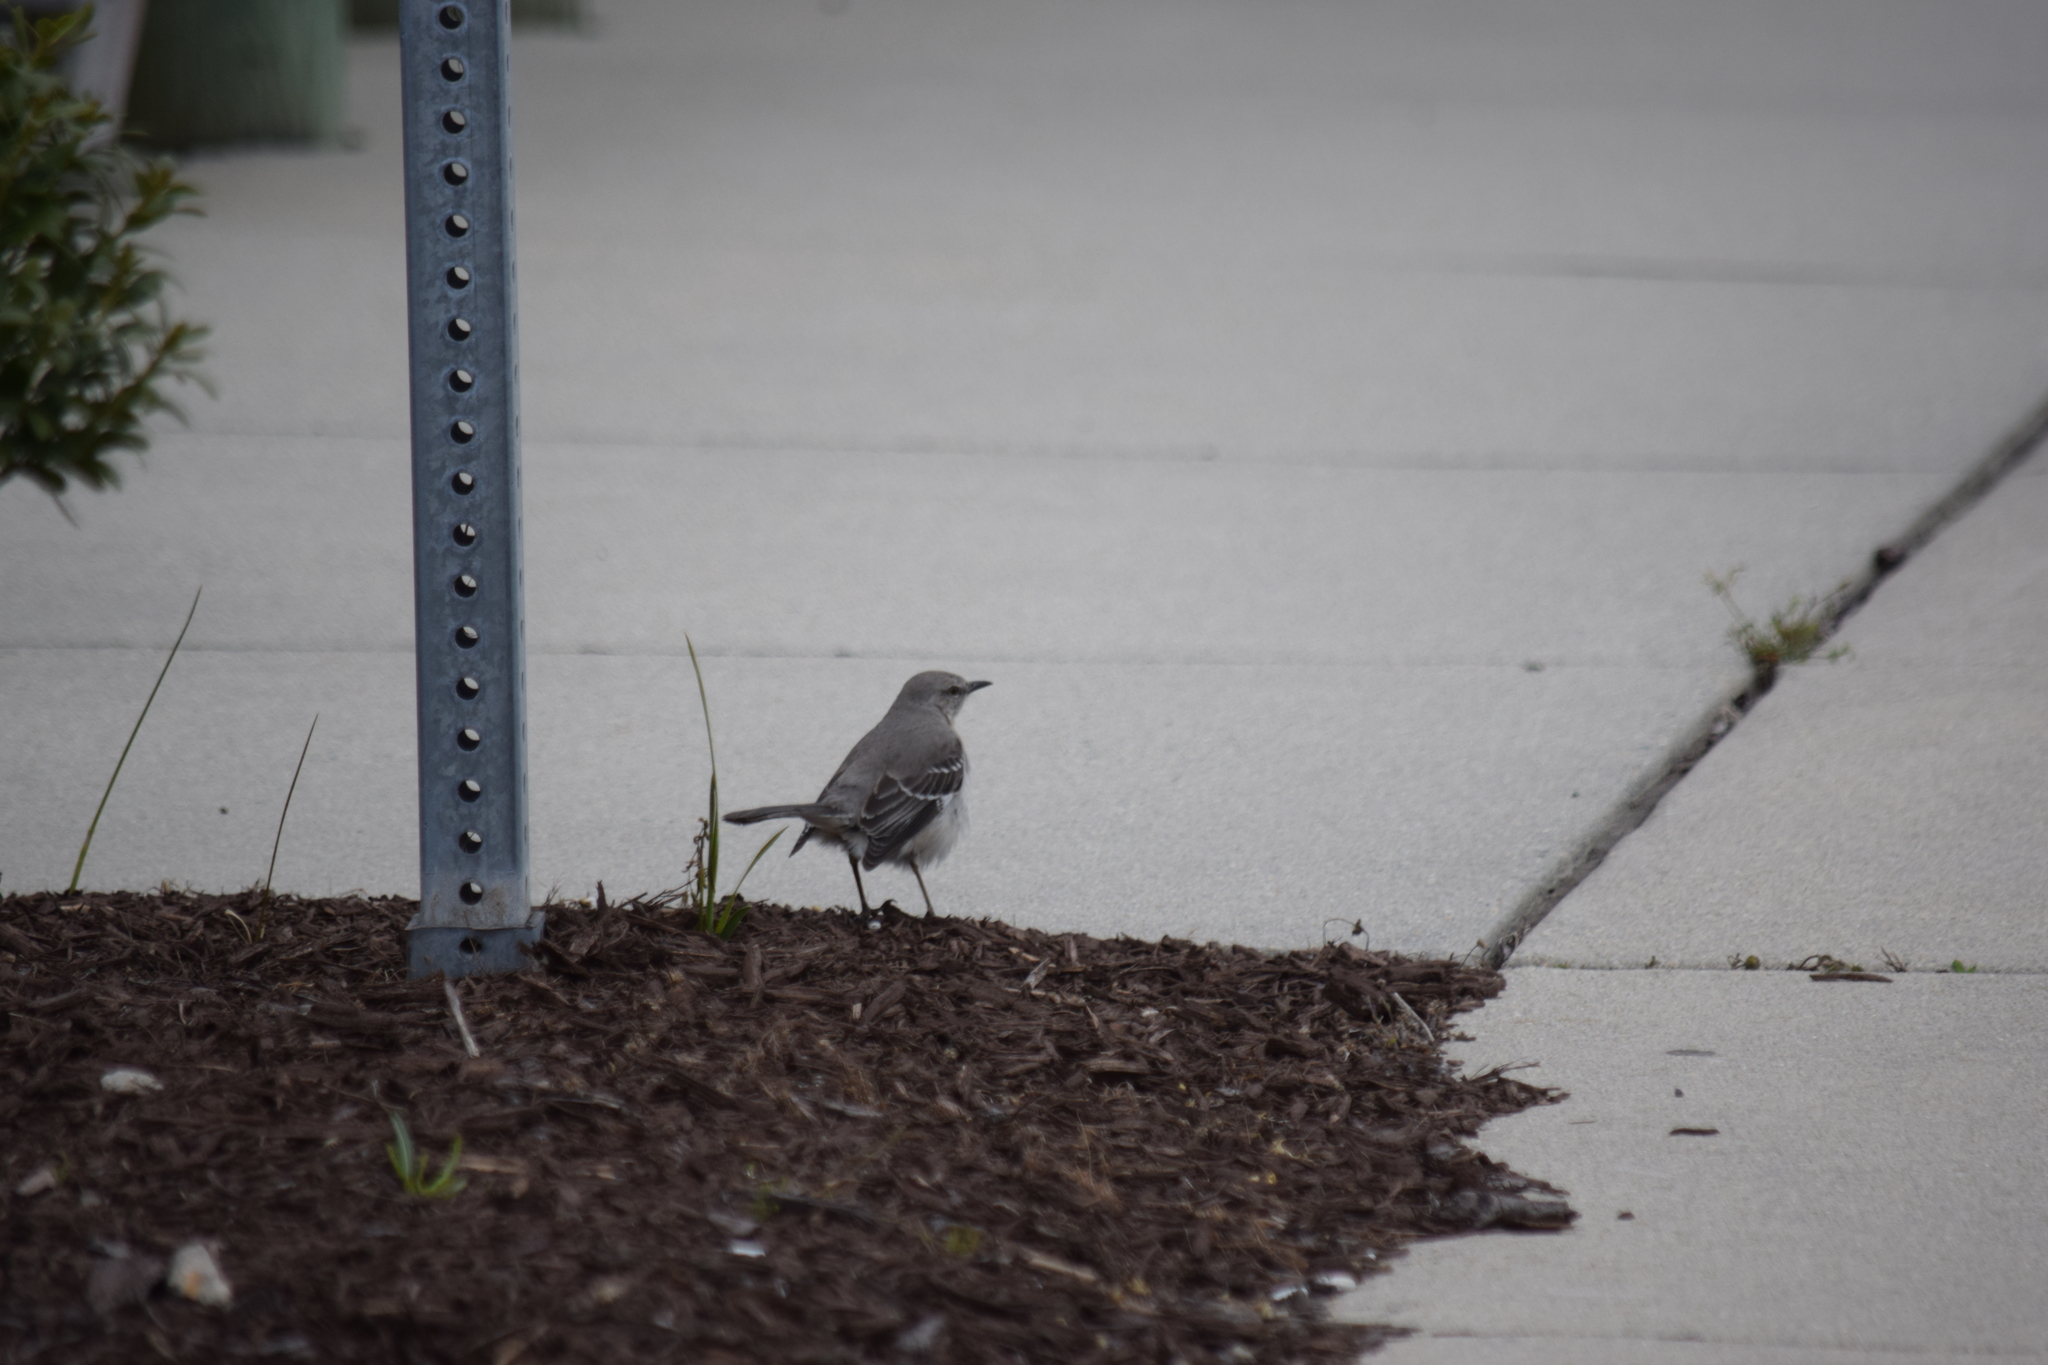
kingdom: Animalia
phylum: Chordata
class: Aves
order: Passeriformes
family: Mimidae
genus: Mimus
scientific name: Mimus polyglottos
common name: Northern mockingbird
